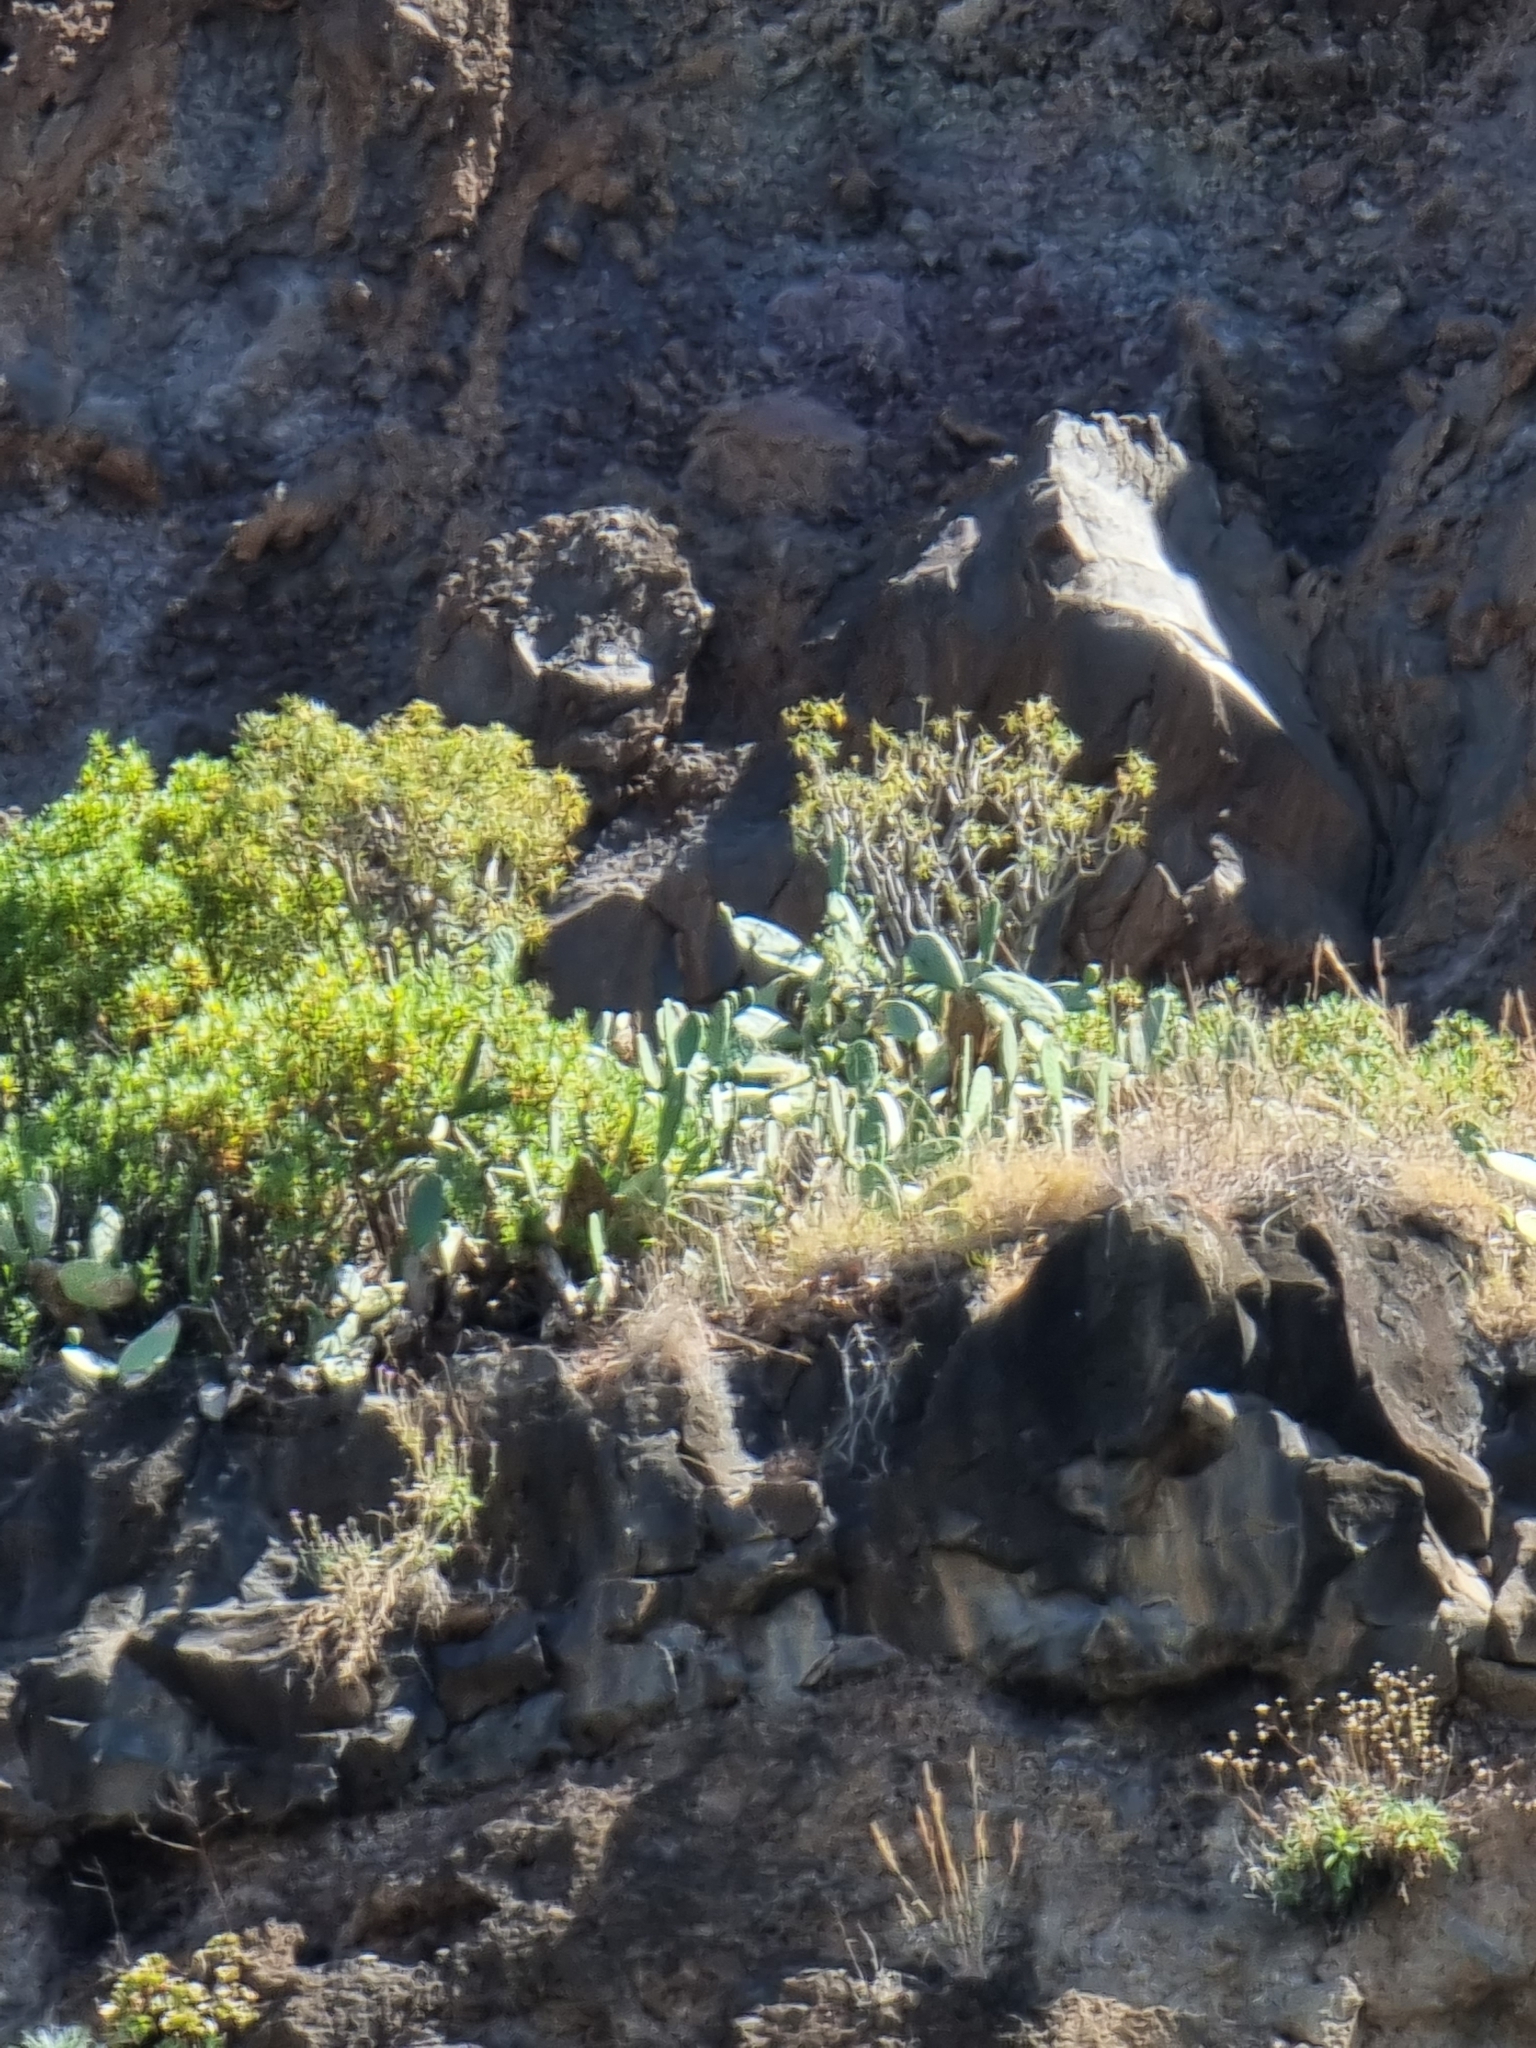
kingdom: Plantae
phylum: Tracheophyta
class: Magnoliopsida
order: Malpighiales
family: Euphorbiaceae
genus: Euphorbia
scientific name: Euphorbia piscatoria
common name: Fish-stunning spurge
